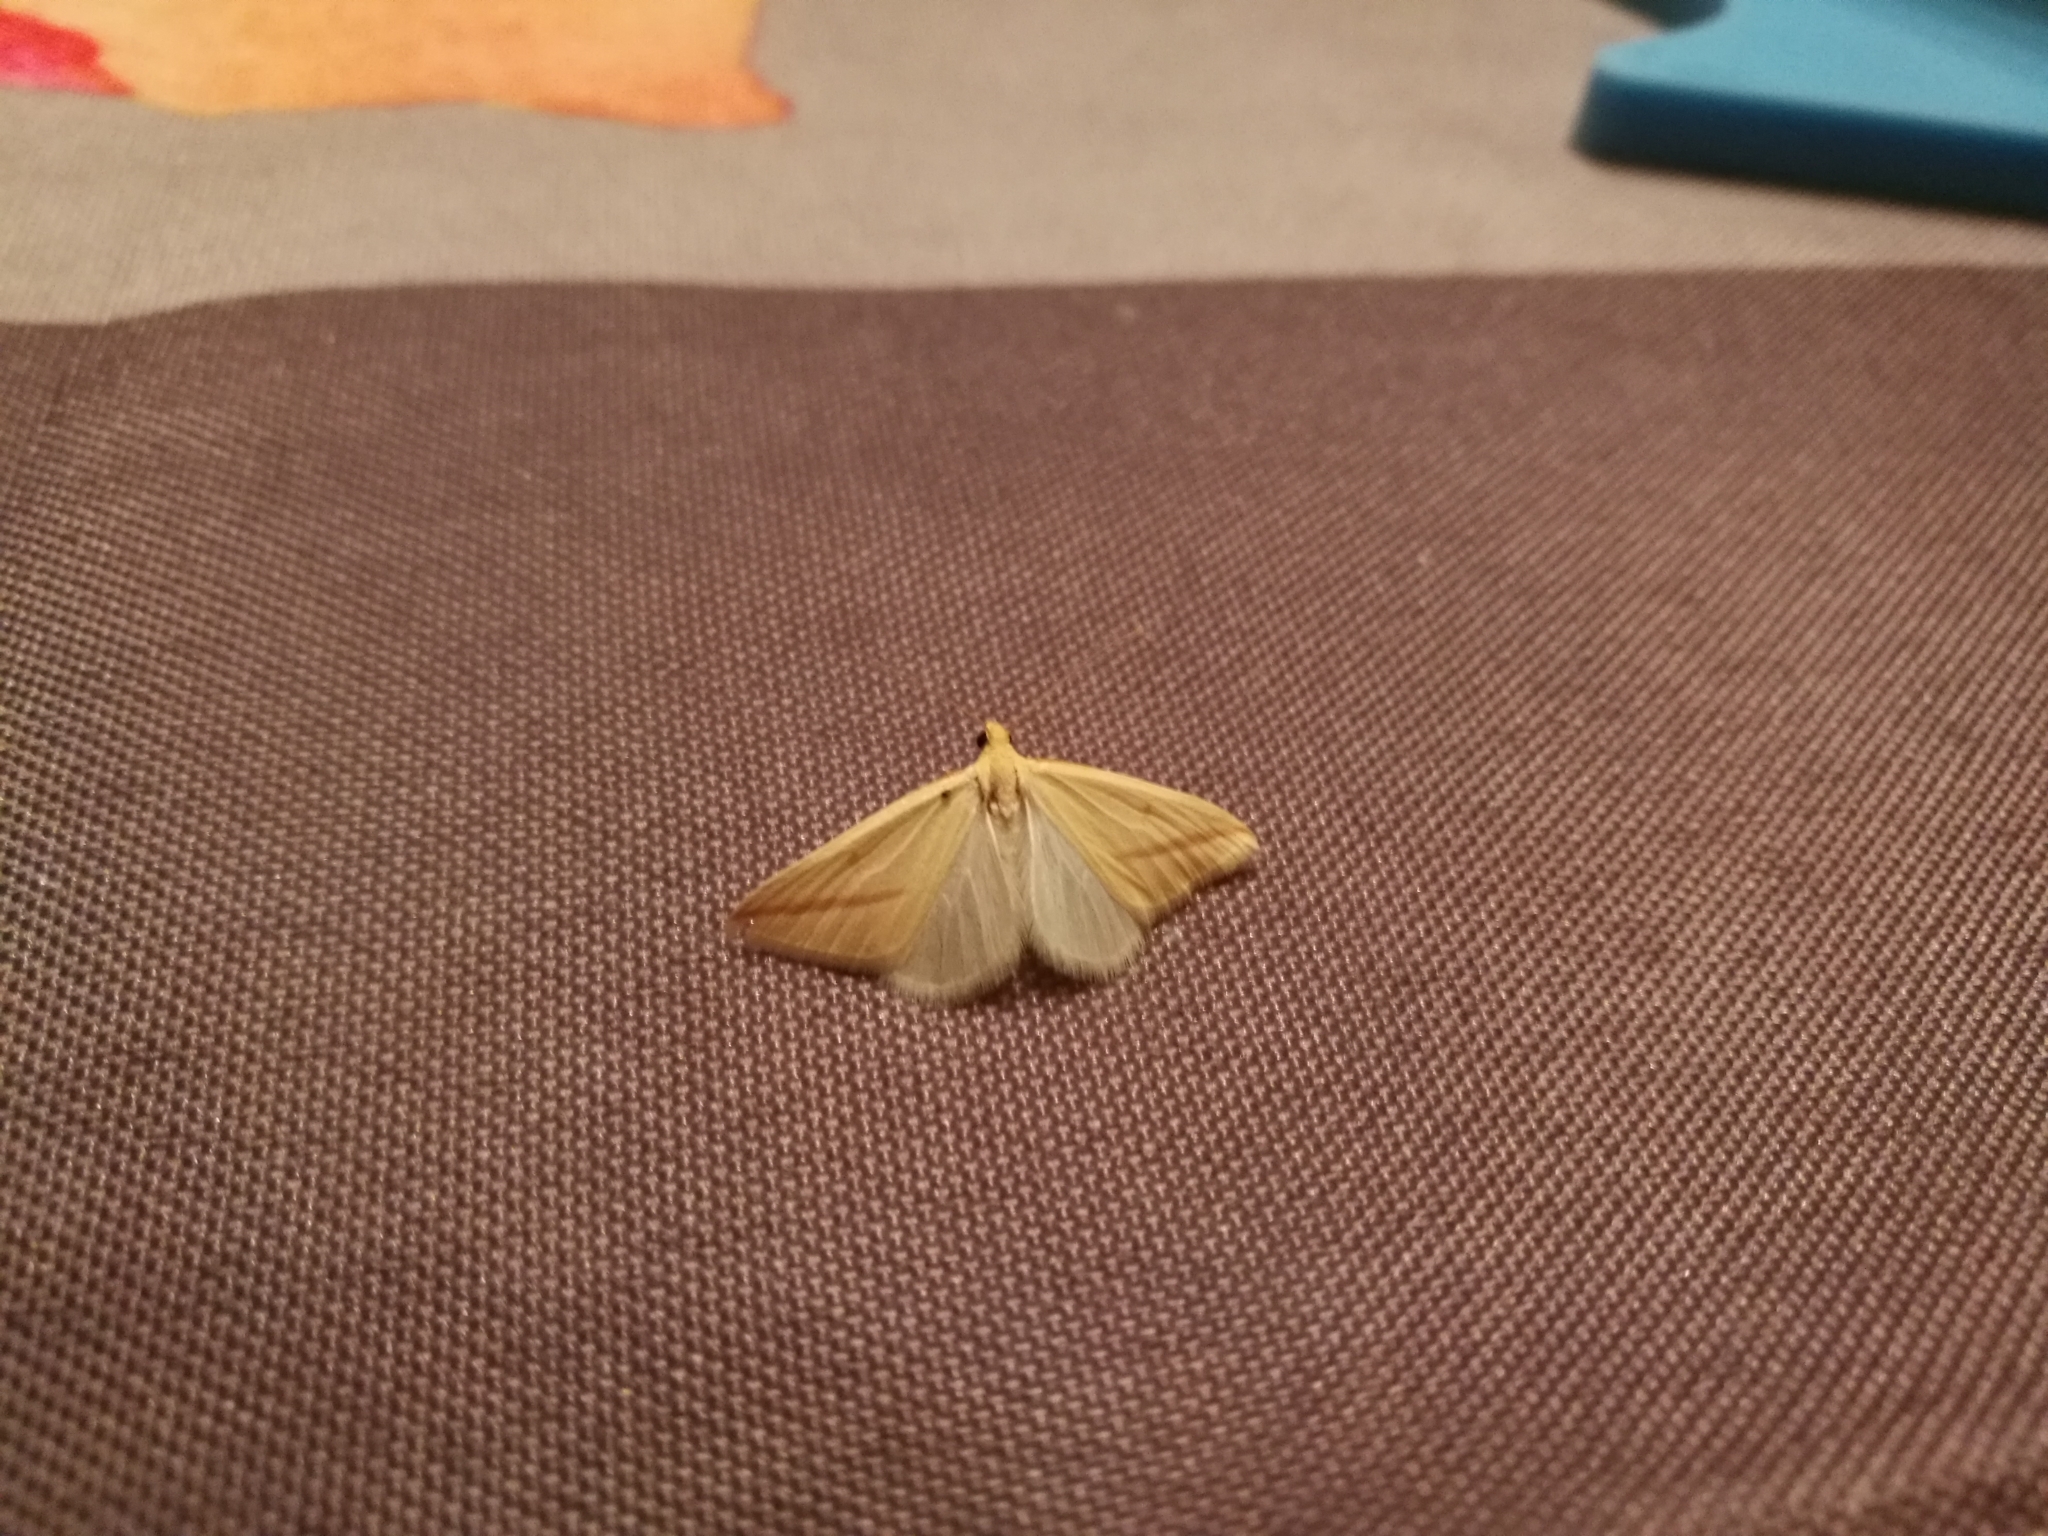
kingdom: Animalia
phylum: Arthropoda
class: Insecta
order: Lepidoptera
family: Geometridae
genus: Rhodometra
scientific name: Rhodometra sacraria
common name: Vestal
